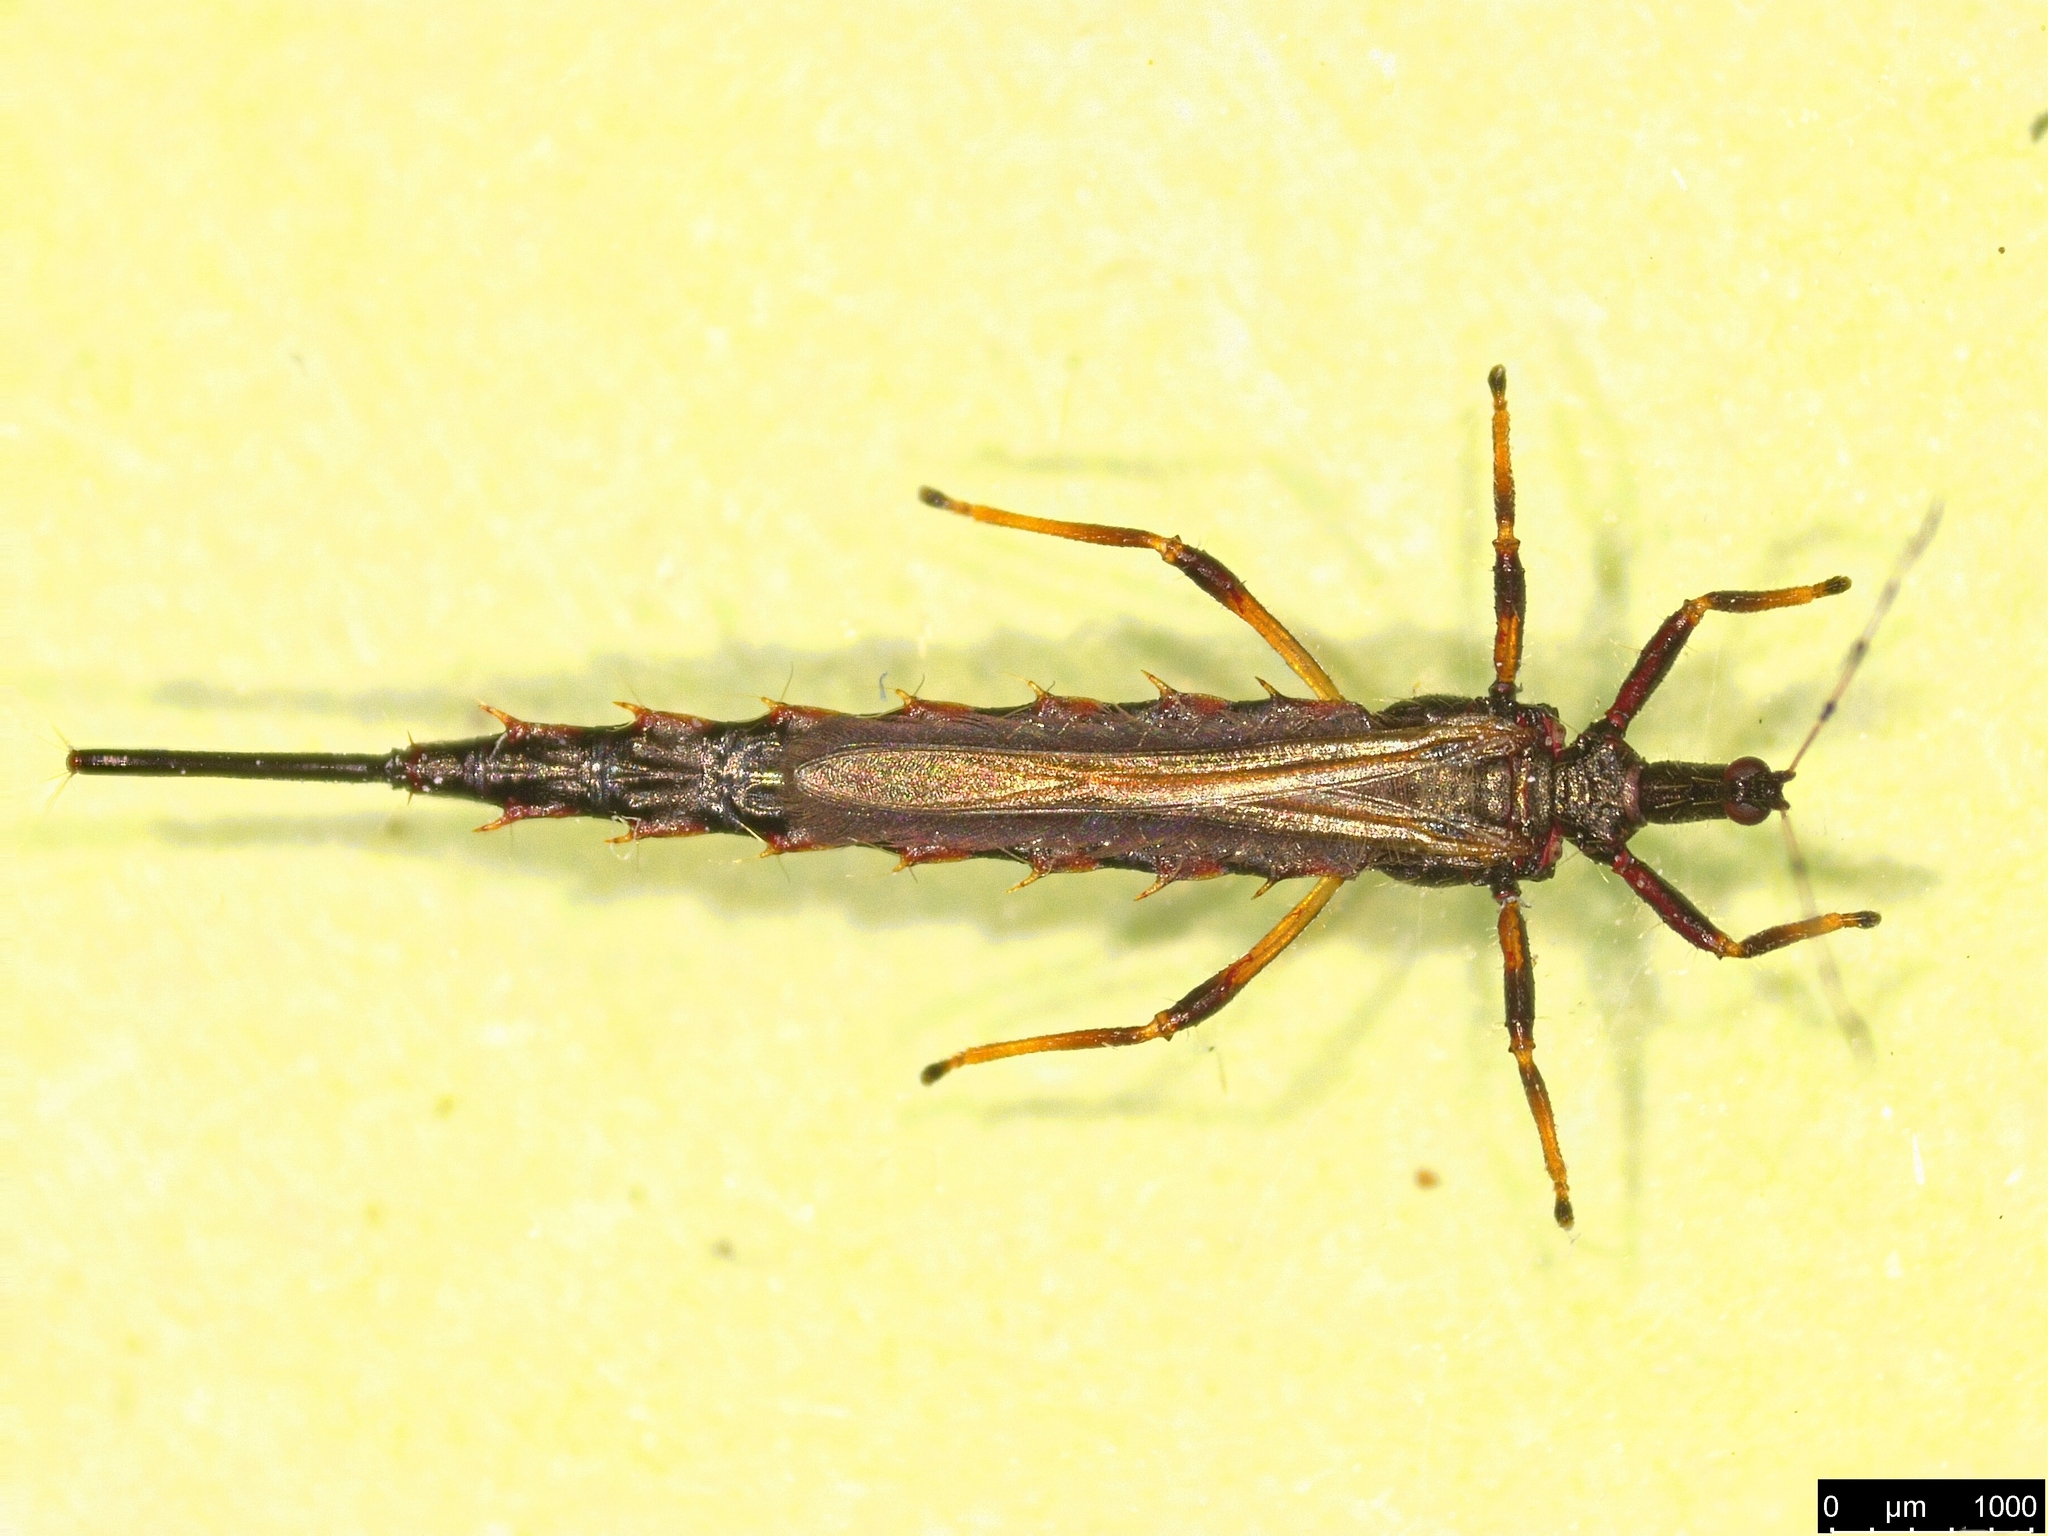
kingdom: Animalia
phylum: Arthropoda
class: Insecta
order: Thysanoptera
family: Phlaeothripidae
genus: Idolothrips
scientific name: Idolothrips spectrum
